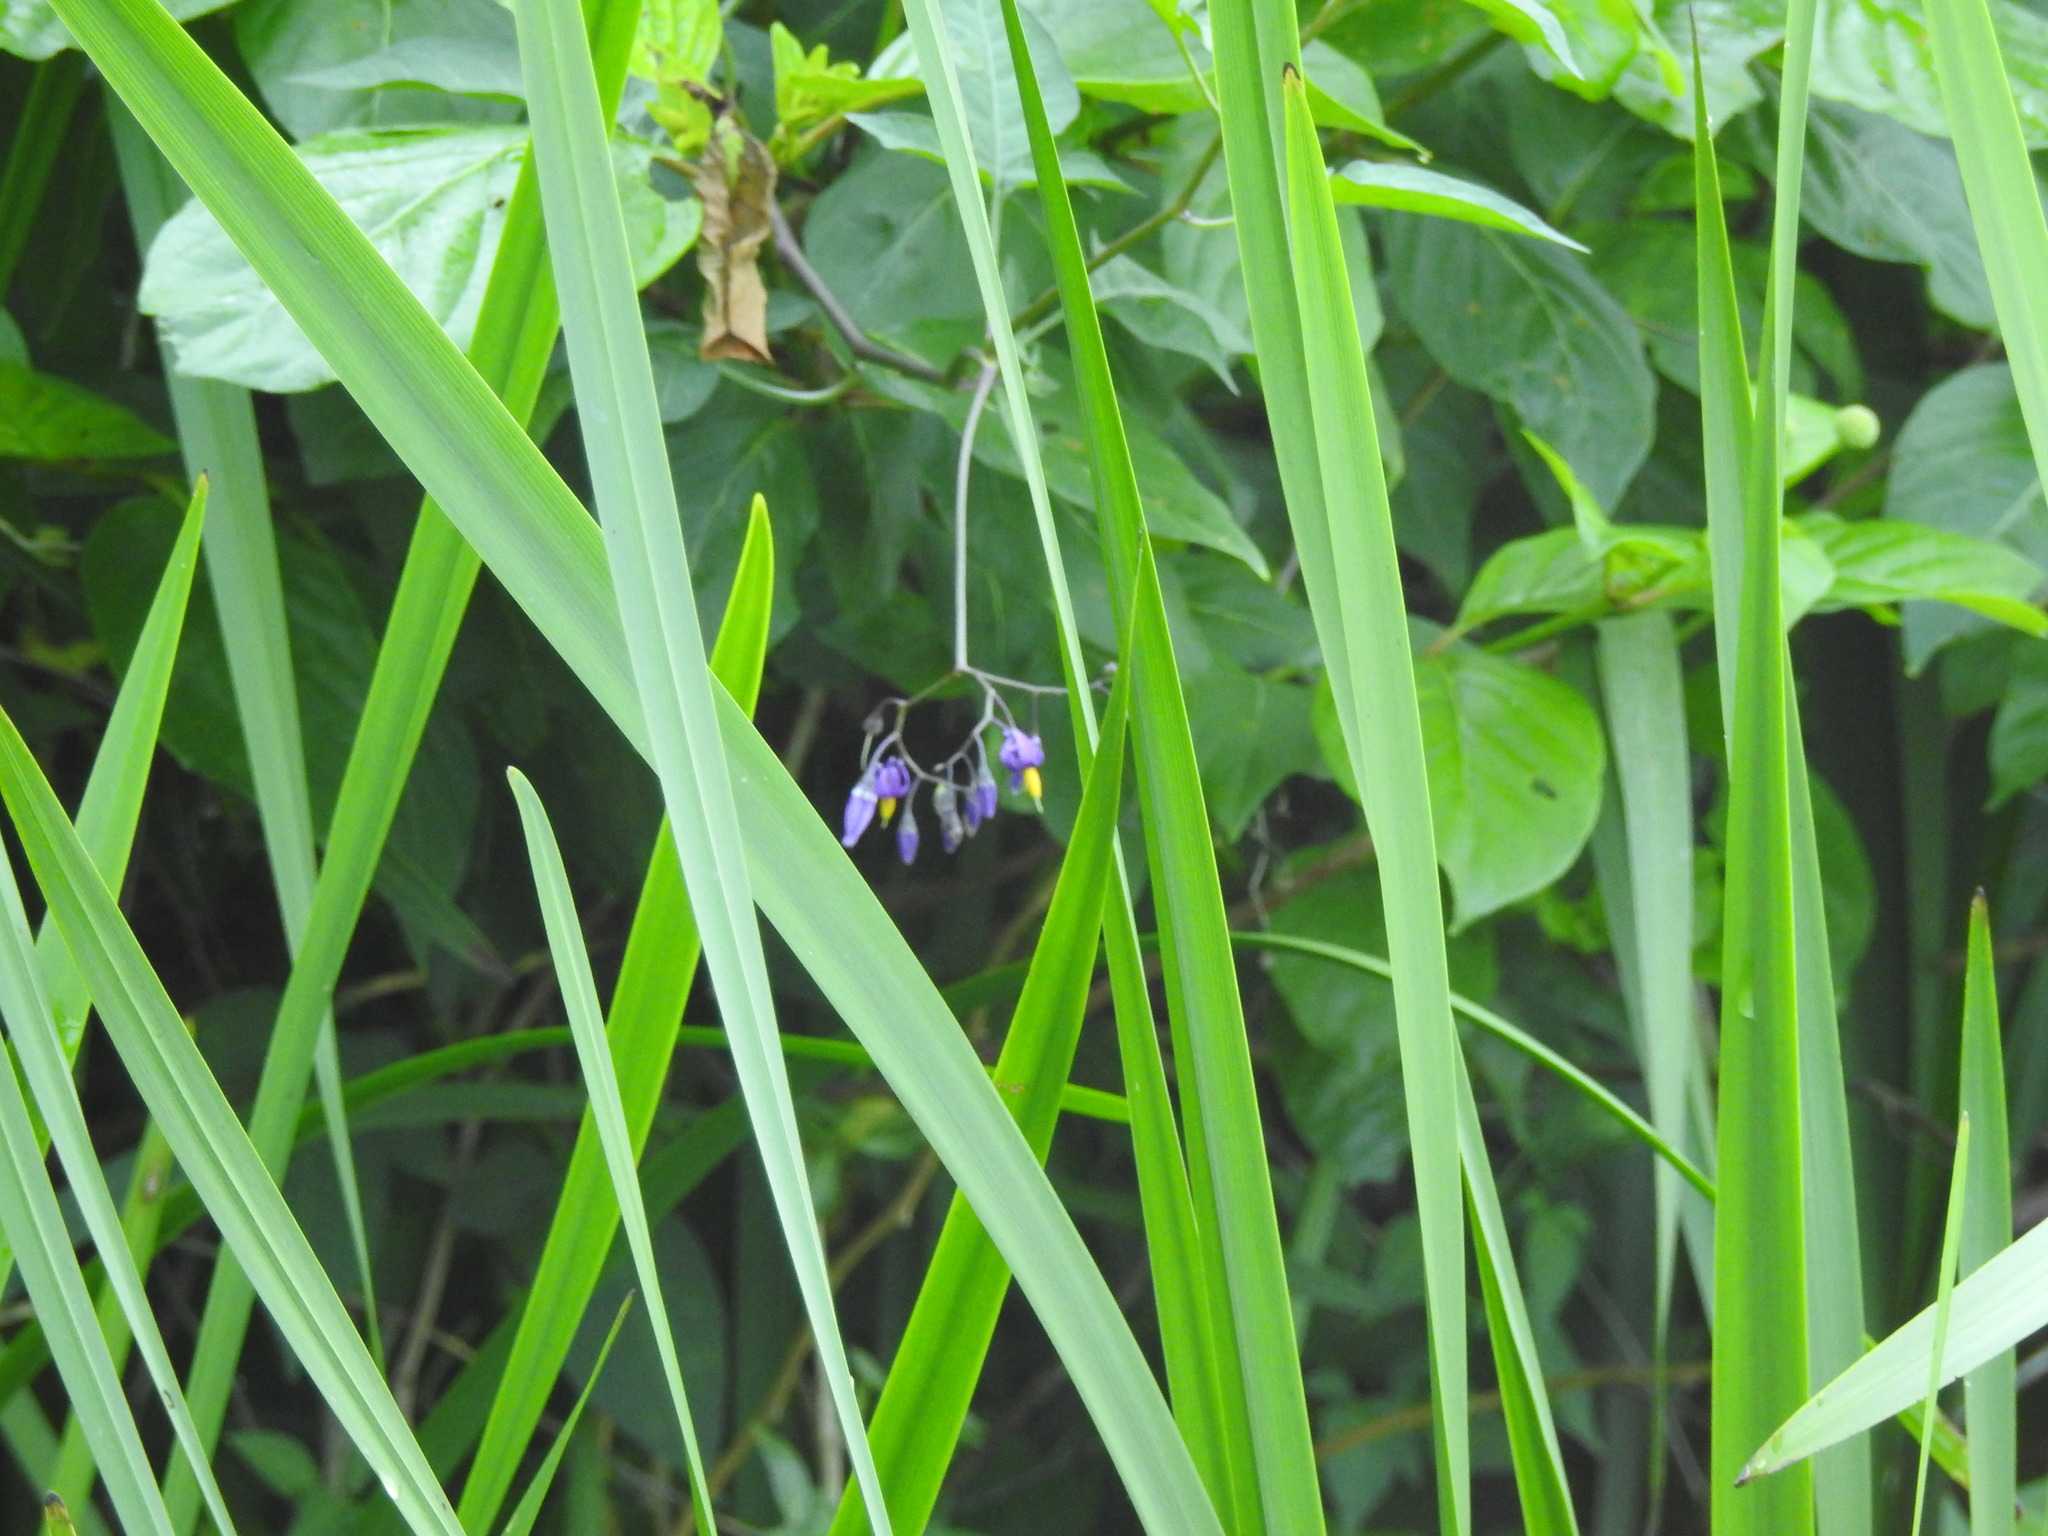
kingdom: Plantae
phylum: Tracheophyta
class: Magnoliopsida
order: Solanales
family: Solanaceae
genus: Solanum
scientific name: Solanum dulcamara
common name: Climbing nightshade
